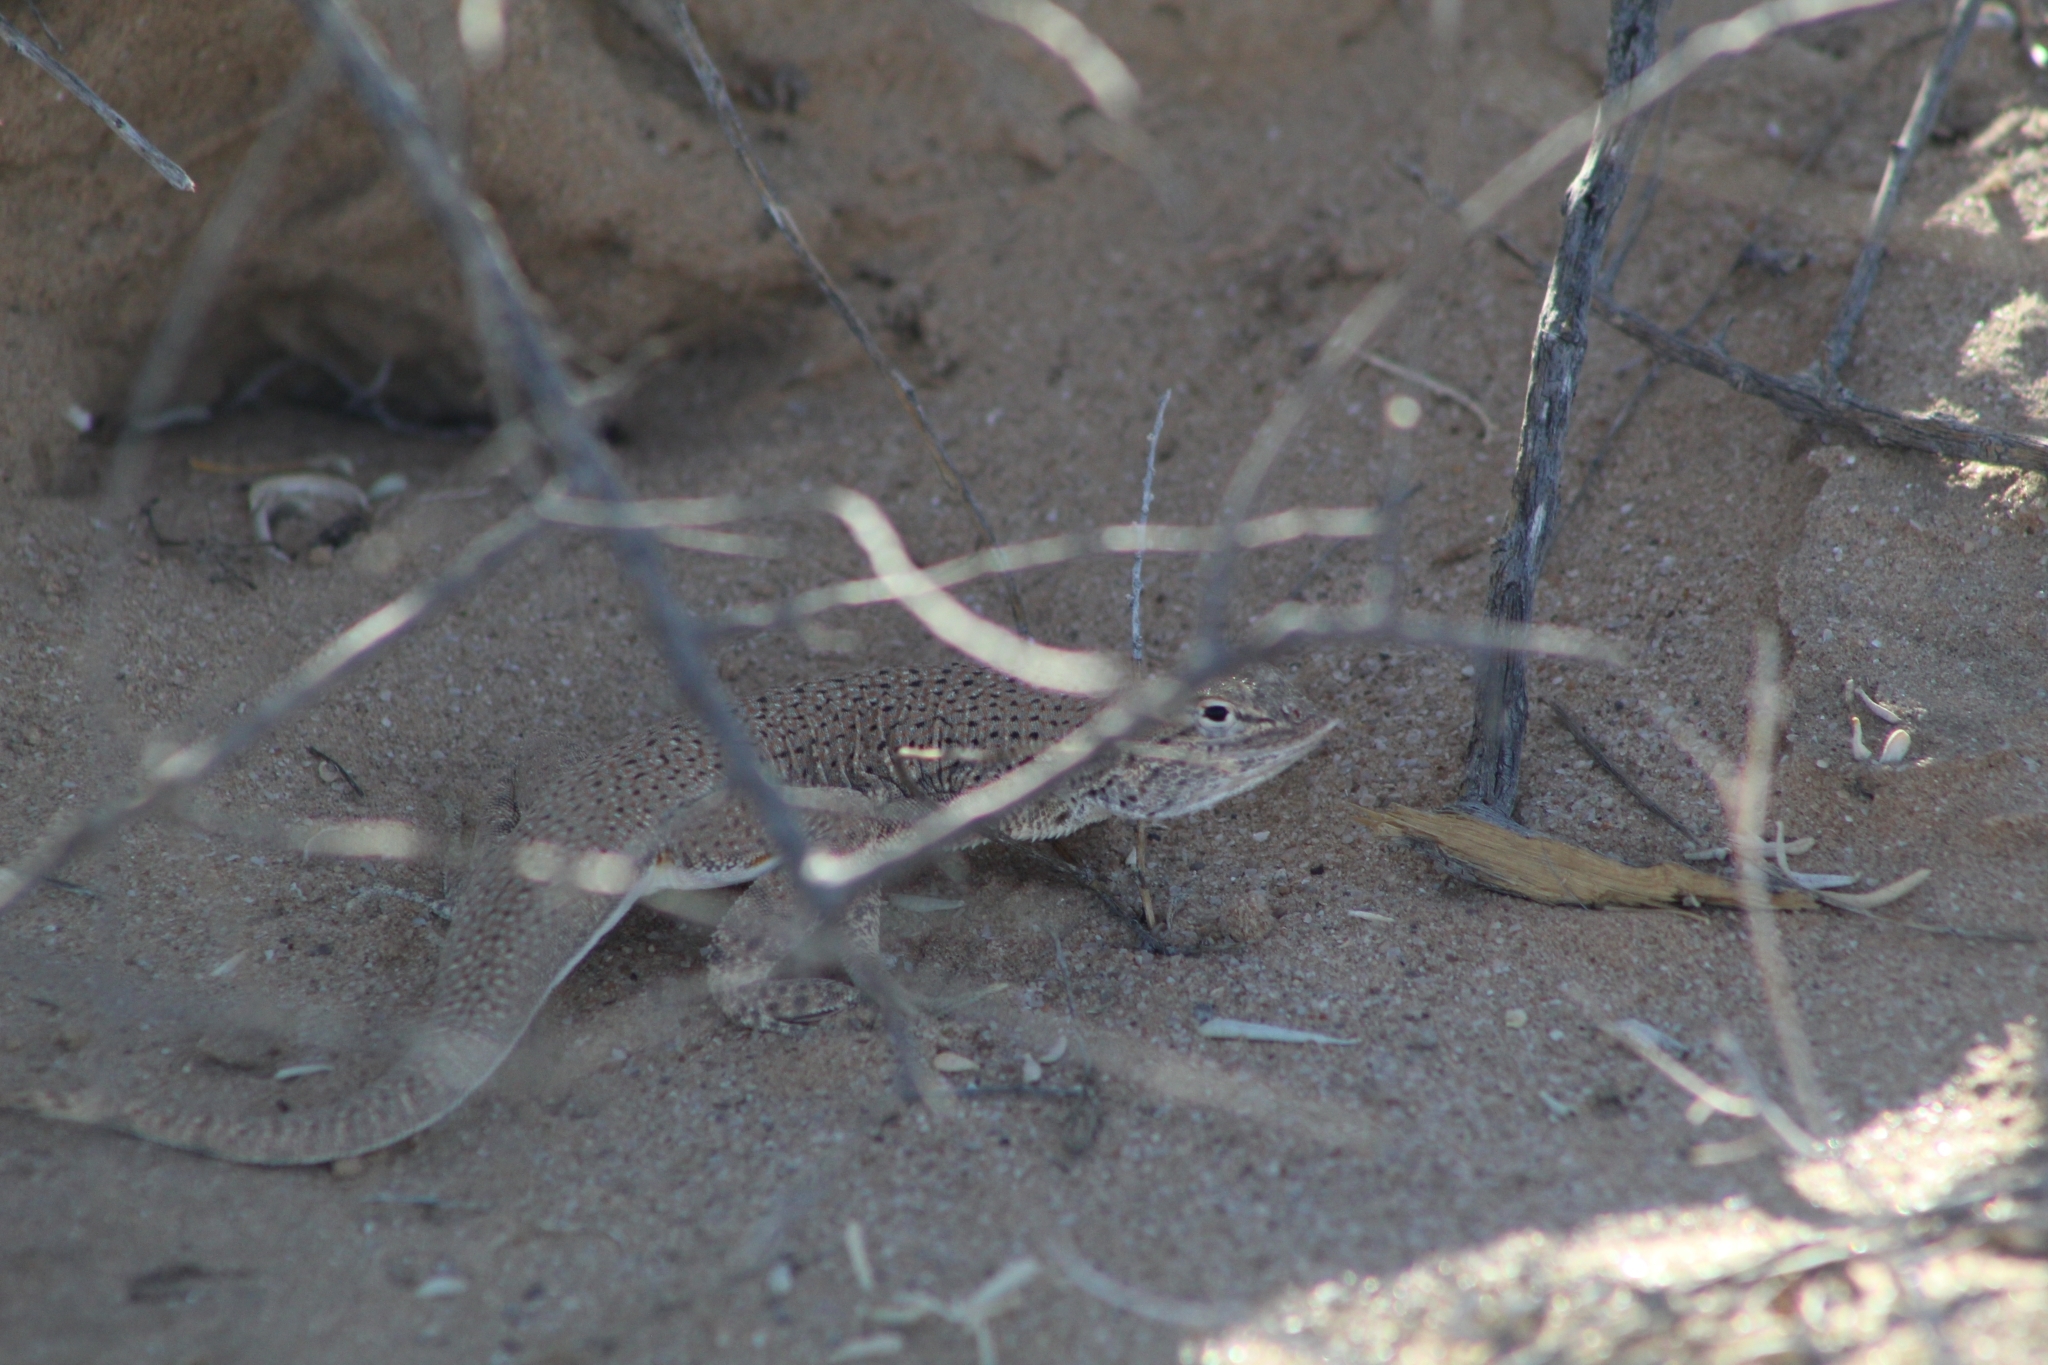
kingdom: Animalia
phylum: Chordata
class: Squamata
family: Phrynosomatidae
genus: Uma
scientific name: Uma rufopunctata
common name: Yuman desert fringe-toed lizard
